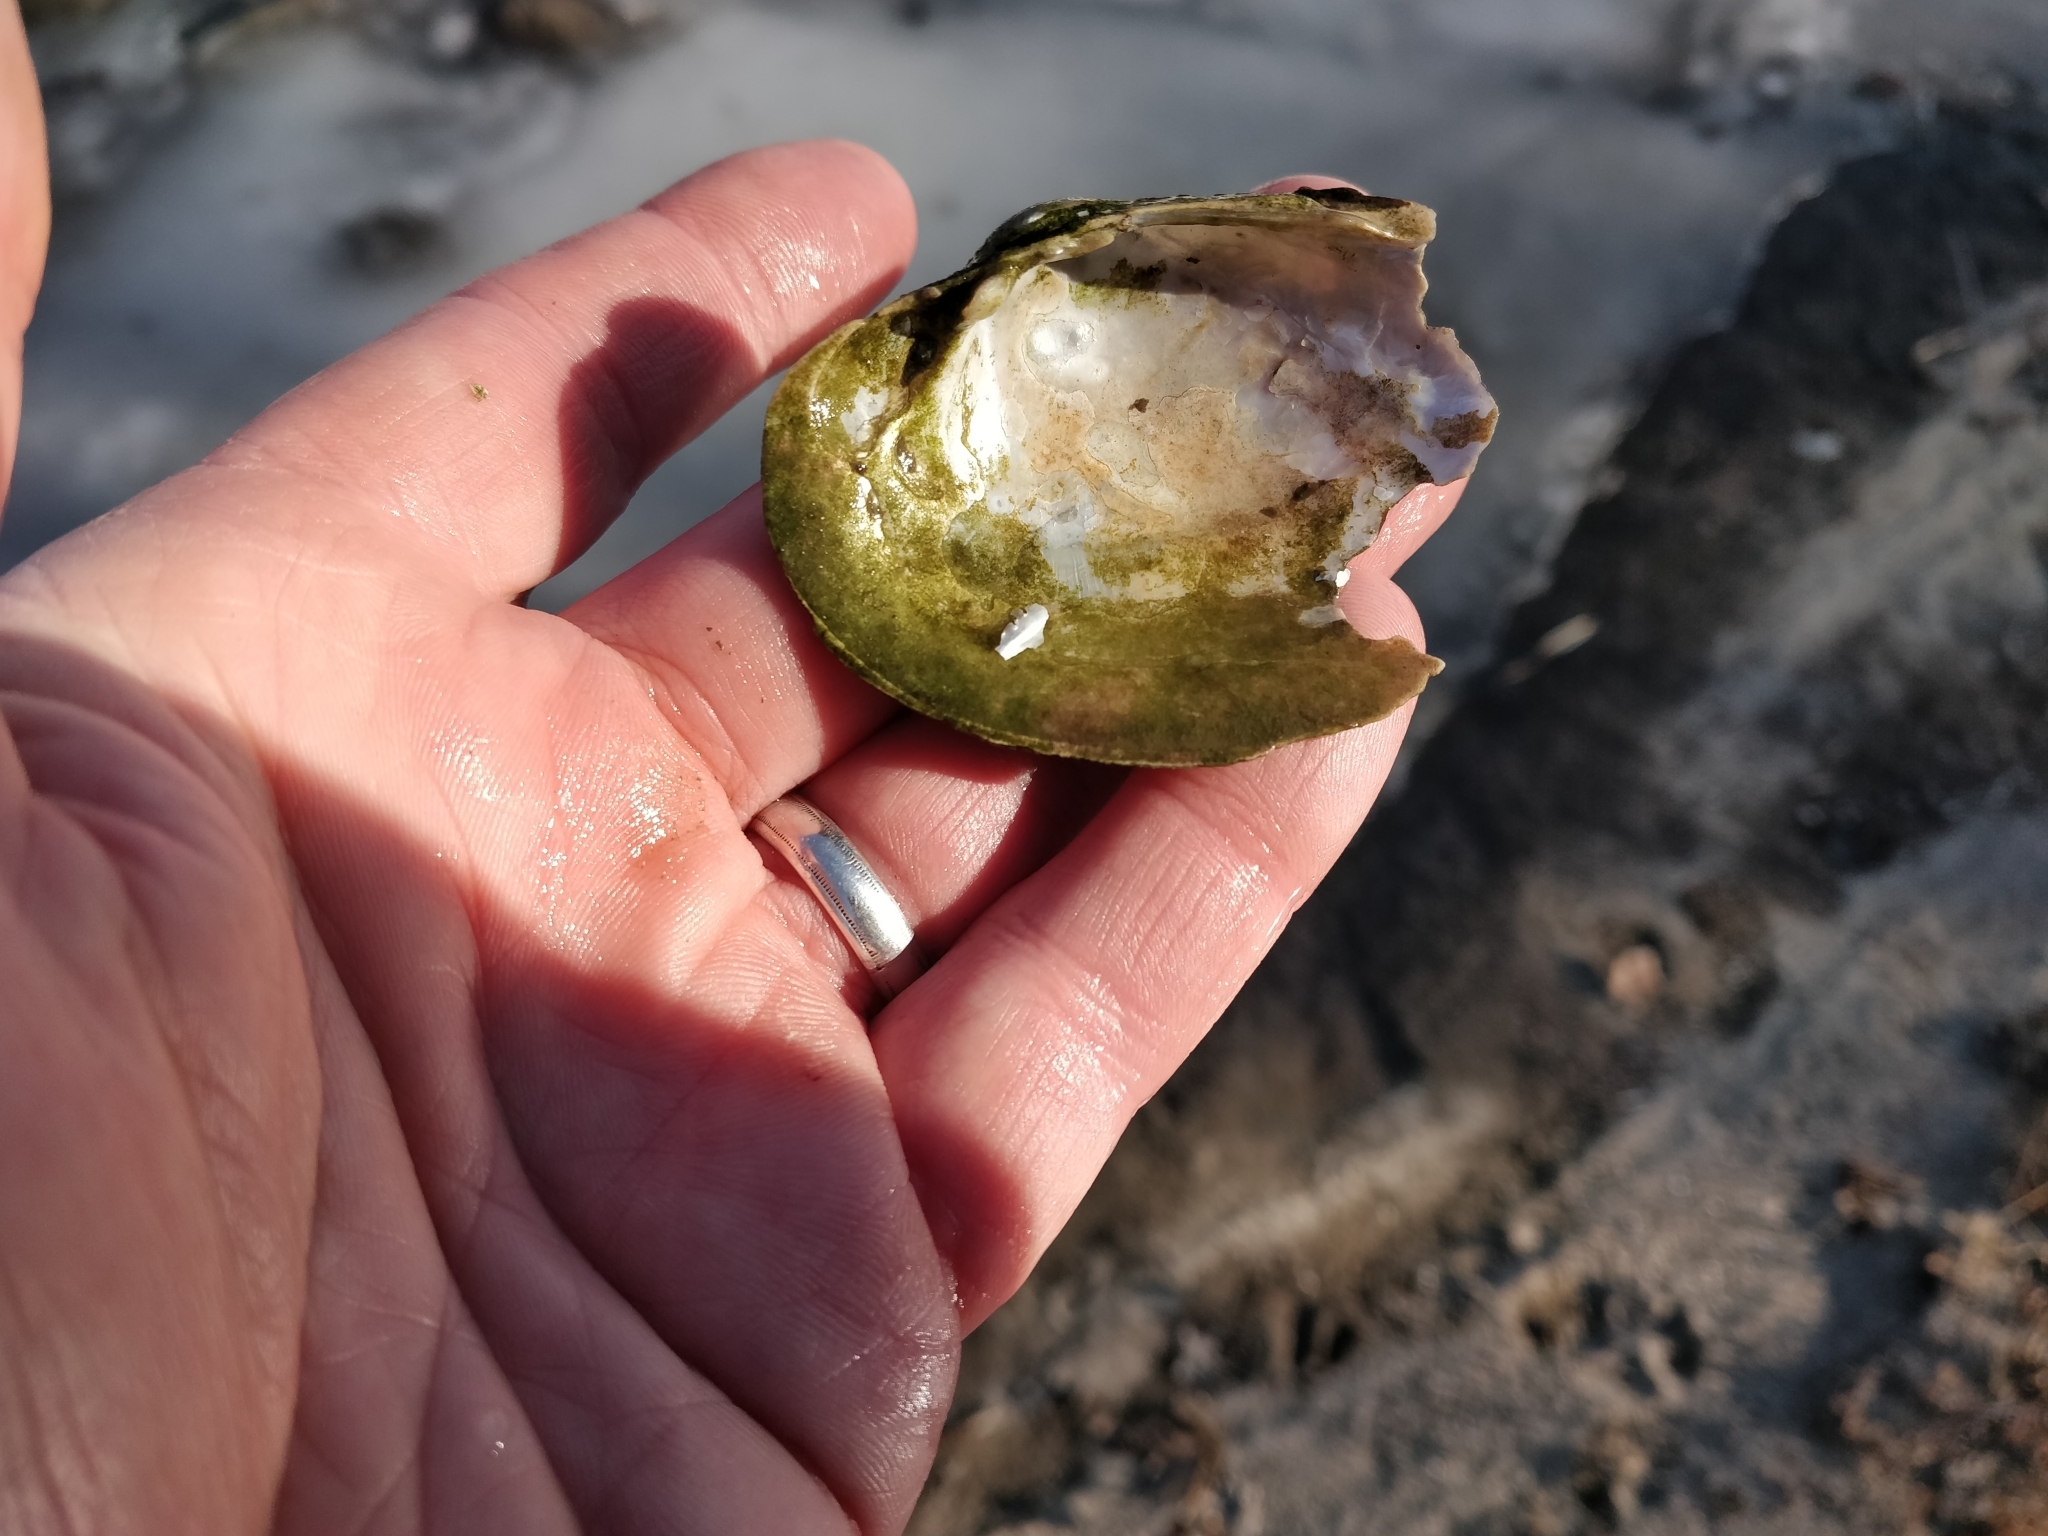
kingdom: Animalia
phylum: Mollusca
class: Bivalvia
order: Unionida
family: Unionidae
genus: Lampsilis
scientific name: Lampsilis cardium
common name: Plain pocketbook
